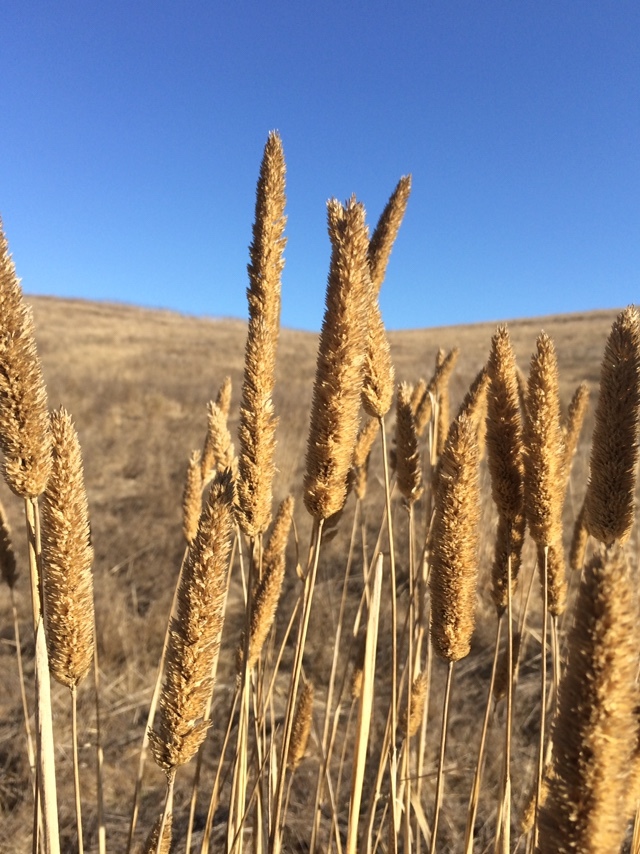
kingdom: Plantae
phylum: Tracheophyta
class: Liliopsida
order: Poales
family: Poaceae
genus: Phalaris
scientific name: Phalaris aquatica
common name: Bulbous canary-grass
